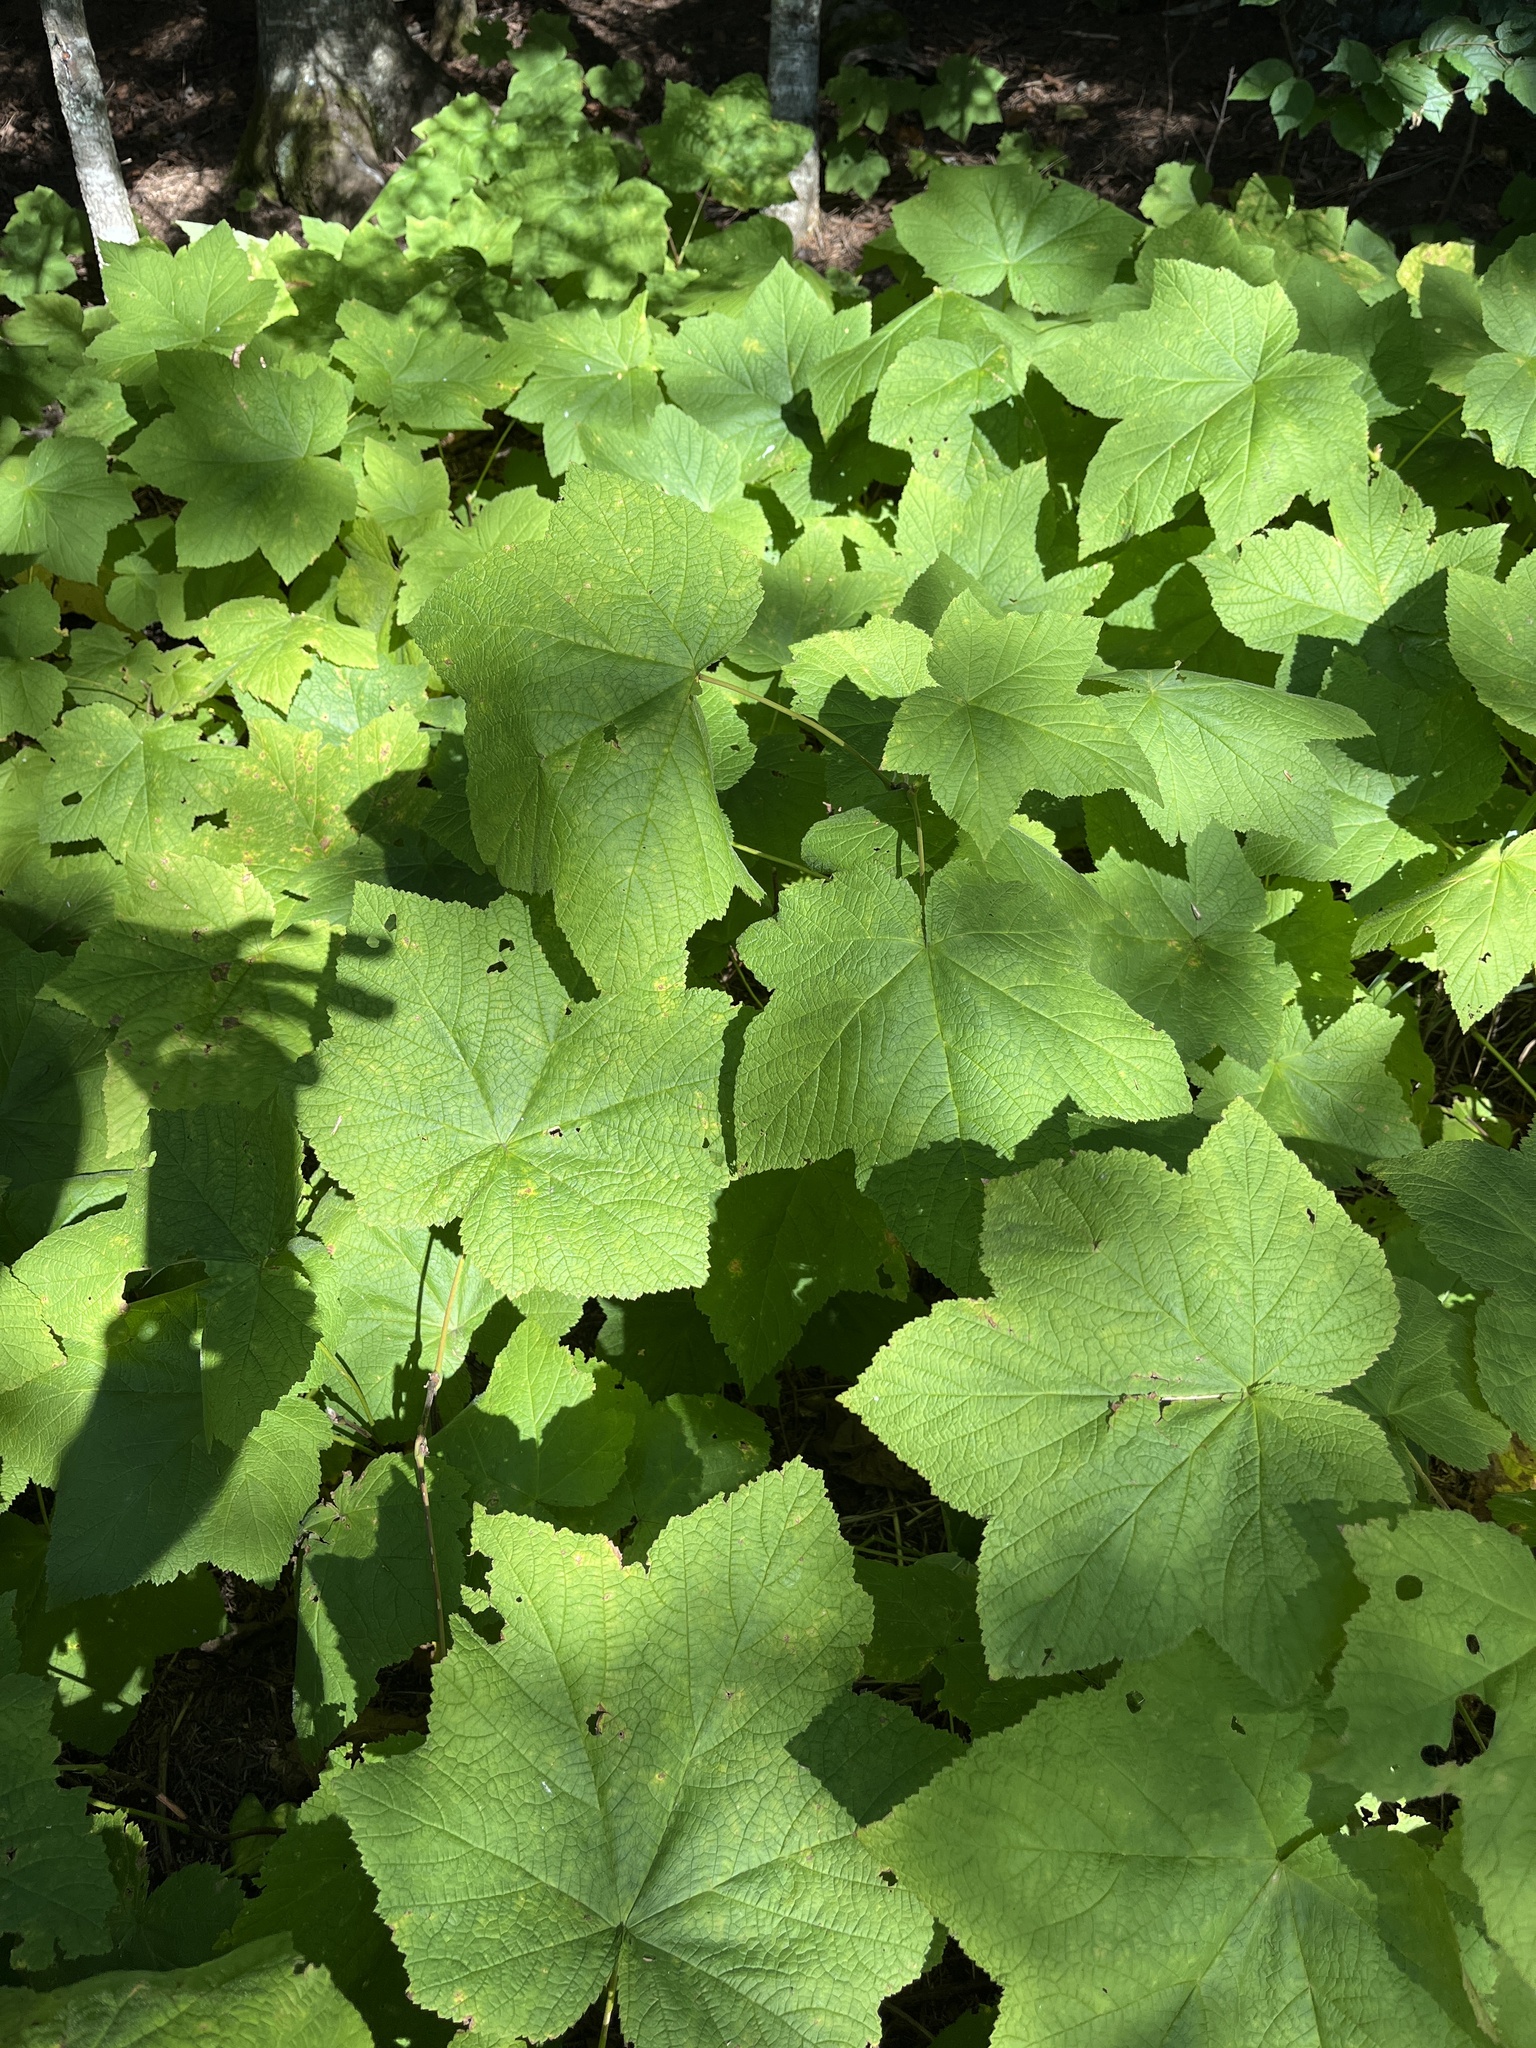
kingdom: Plantae
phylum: Tracheophyta
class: Magnoliopsida
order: Rosales
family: Rosaceae
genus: Rubus
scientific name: Rubus parviflorus
